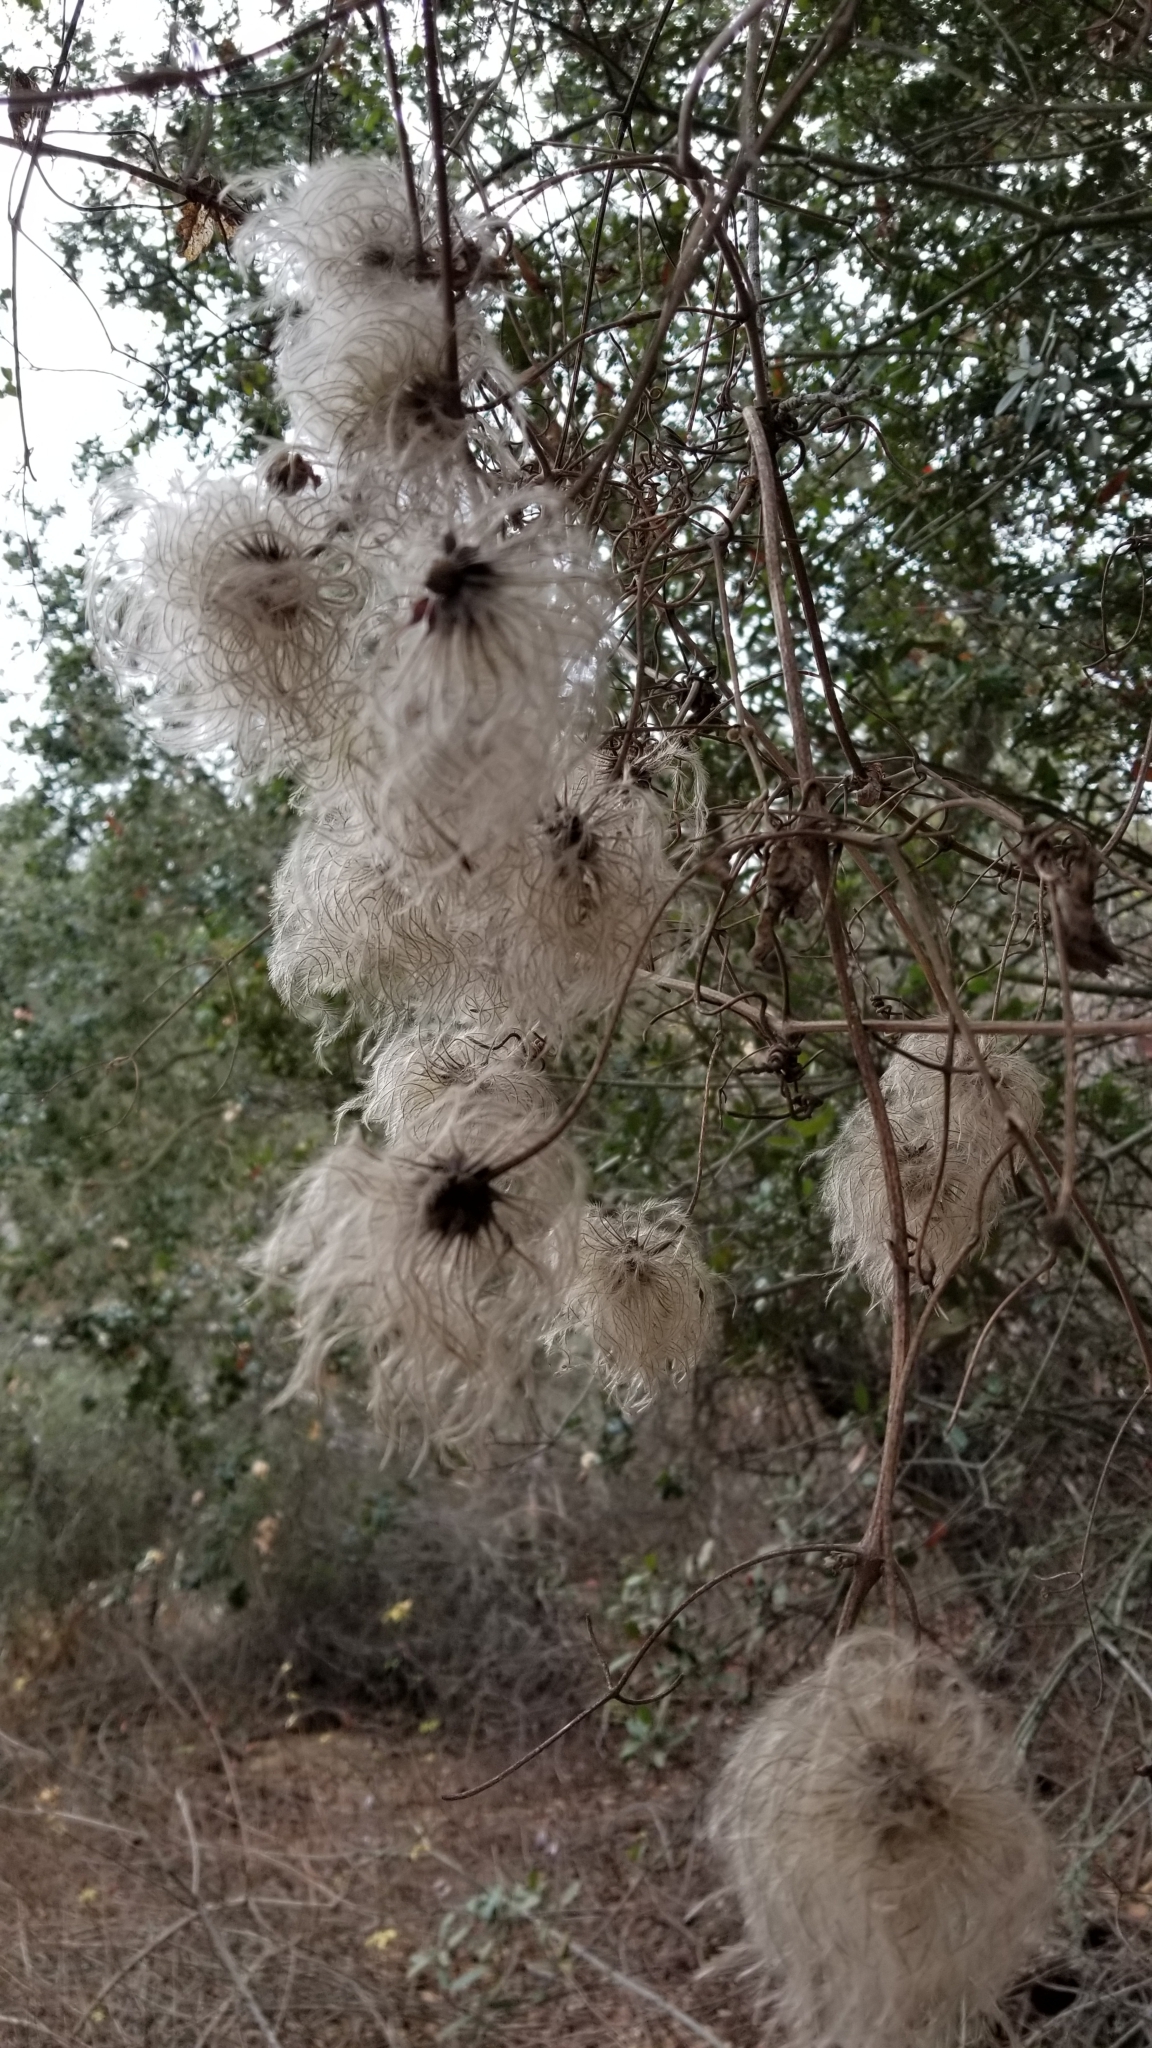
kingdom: Plantae
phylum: Tracheophyta
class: Magnoliopsida
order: Ranunculales
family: Ranunculaceae
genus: Clematis
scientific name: Clematis ligusticifolia
